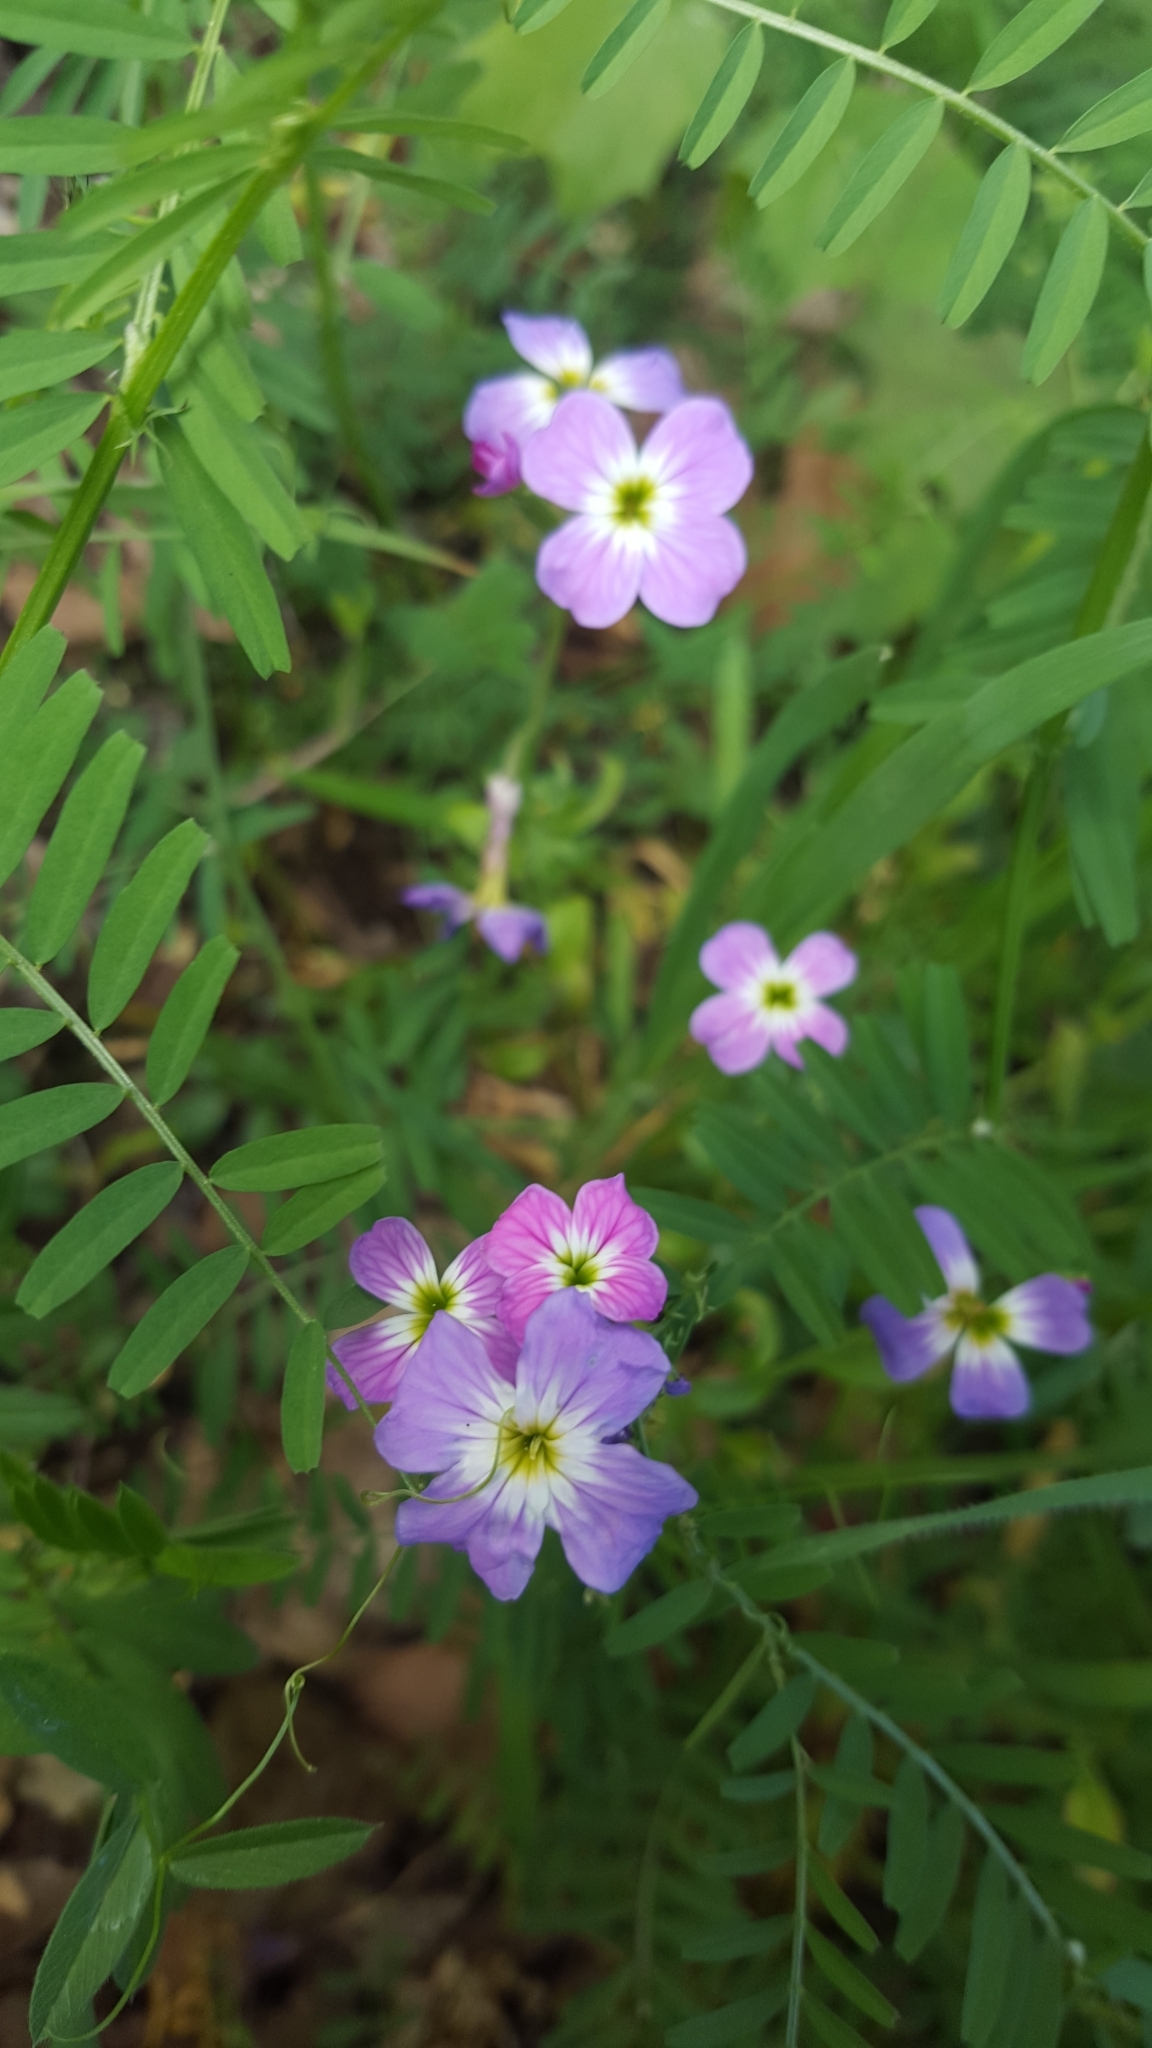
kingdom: Plantae
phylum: Tracheophyta
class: Magnoliopsida
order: Brassicales
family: Brassicaceae
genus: Malcolmia
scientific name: Malcolmia maritima
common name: Virginia stock
